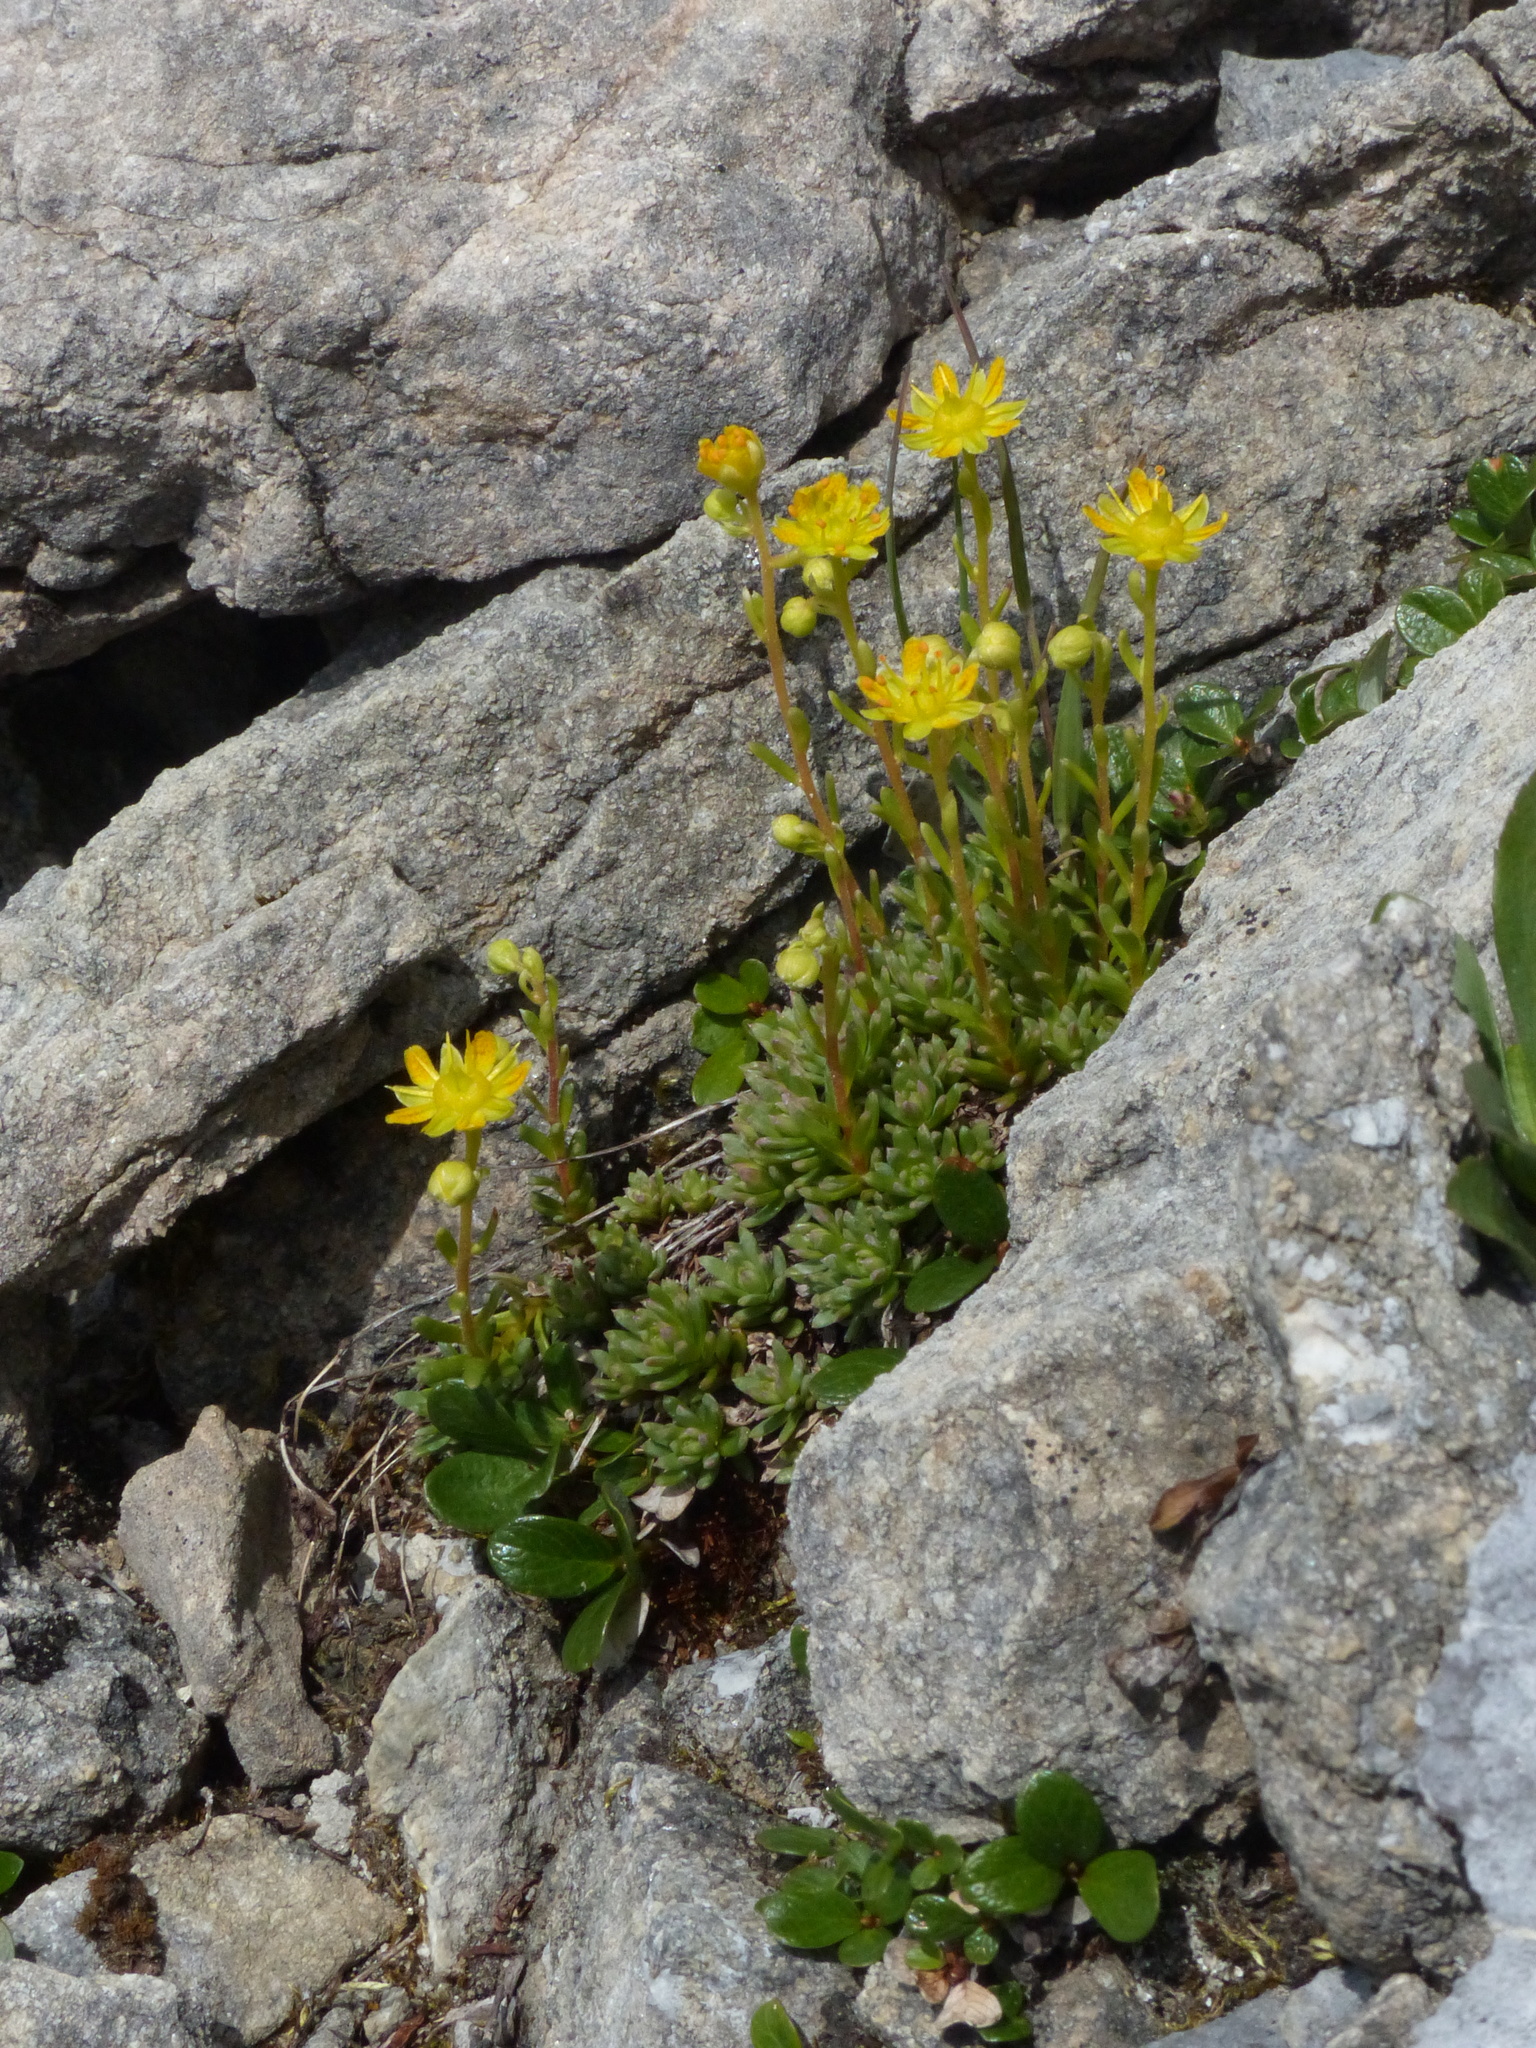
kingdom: Plantae
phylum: Tracheophyta
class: Magnoliopsida
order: Saxifragales
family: Saxifragaceae
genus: Saxifraga
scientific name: Saxifraga aizoides
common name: Yellow mountain saxifrage
